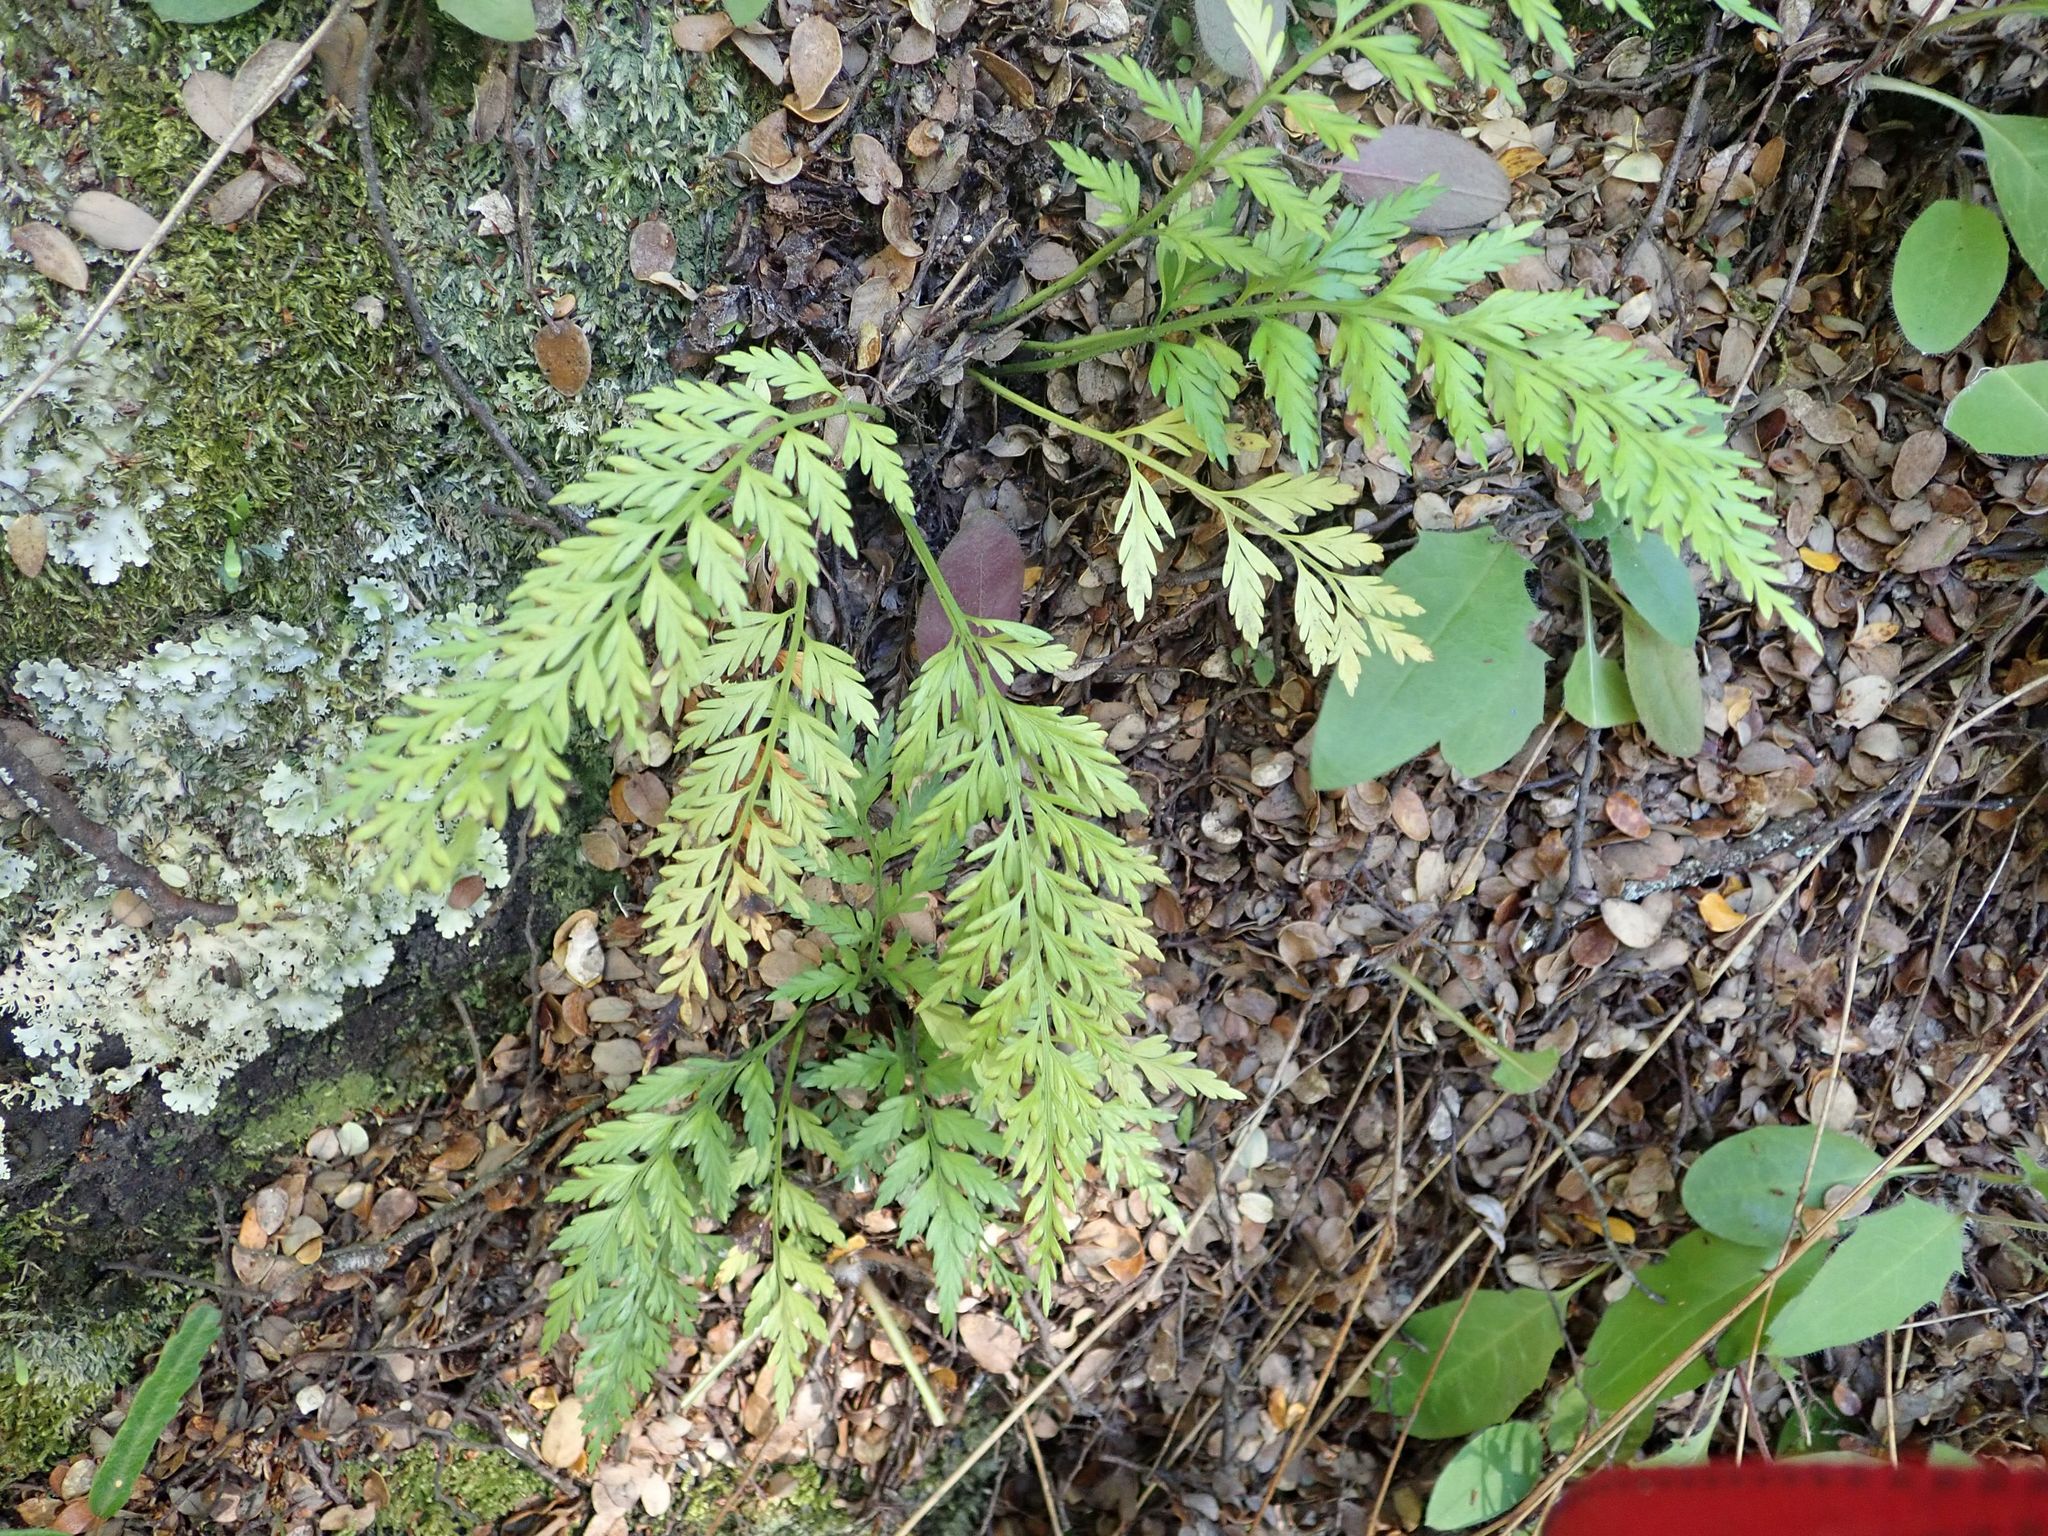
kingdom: Plantae
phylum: Tracheophyta
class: Polypodiopsida
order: Polypodiales
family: Aspleniaceae
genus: Asplenium
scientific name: Asplenium richardii
